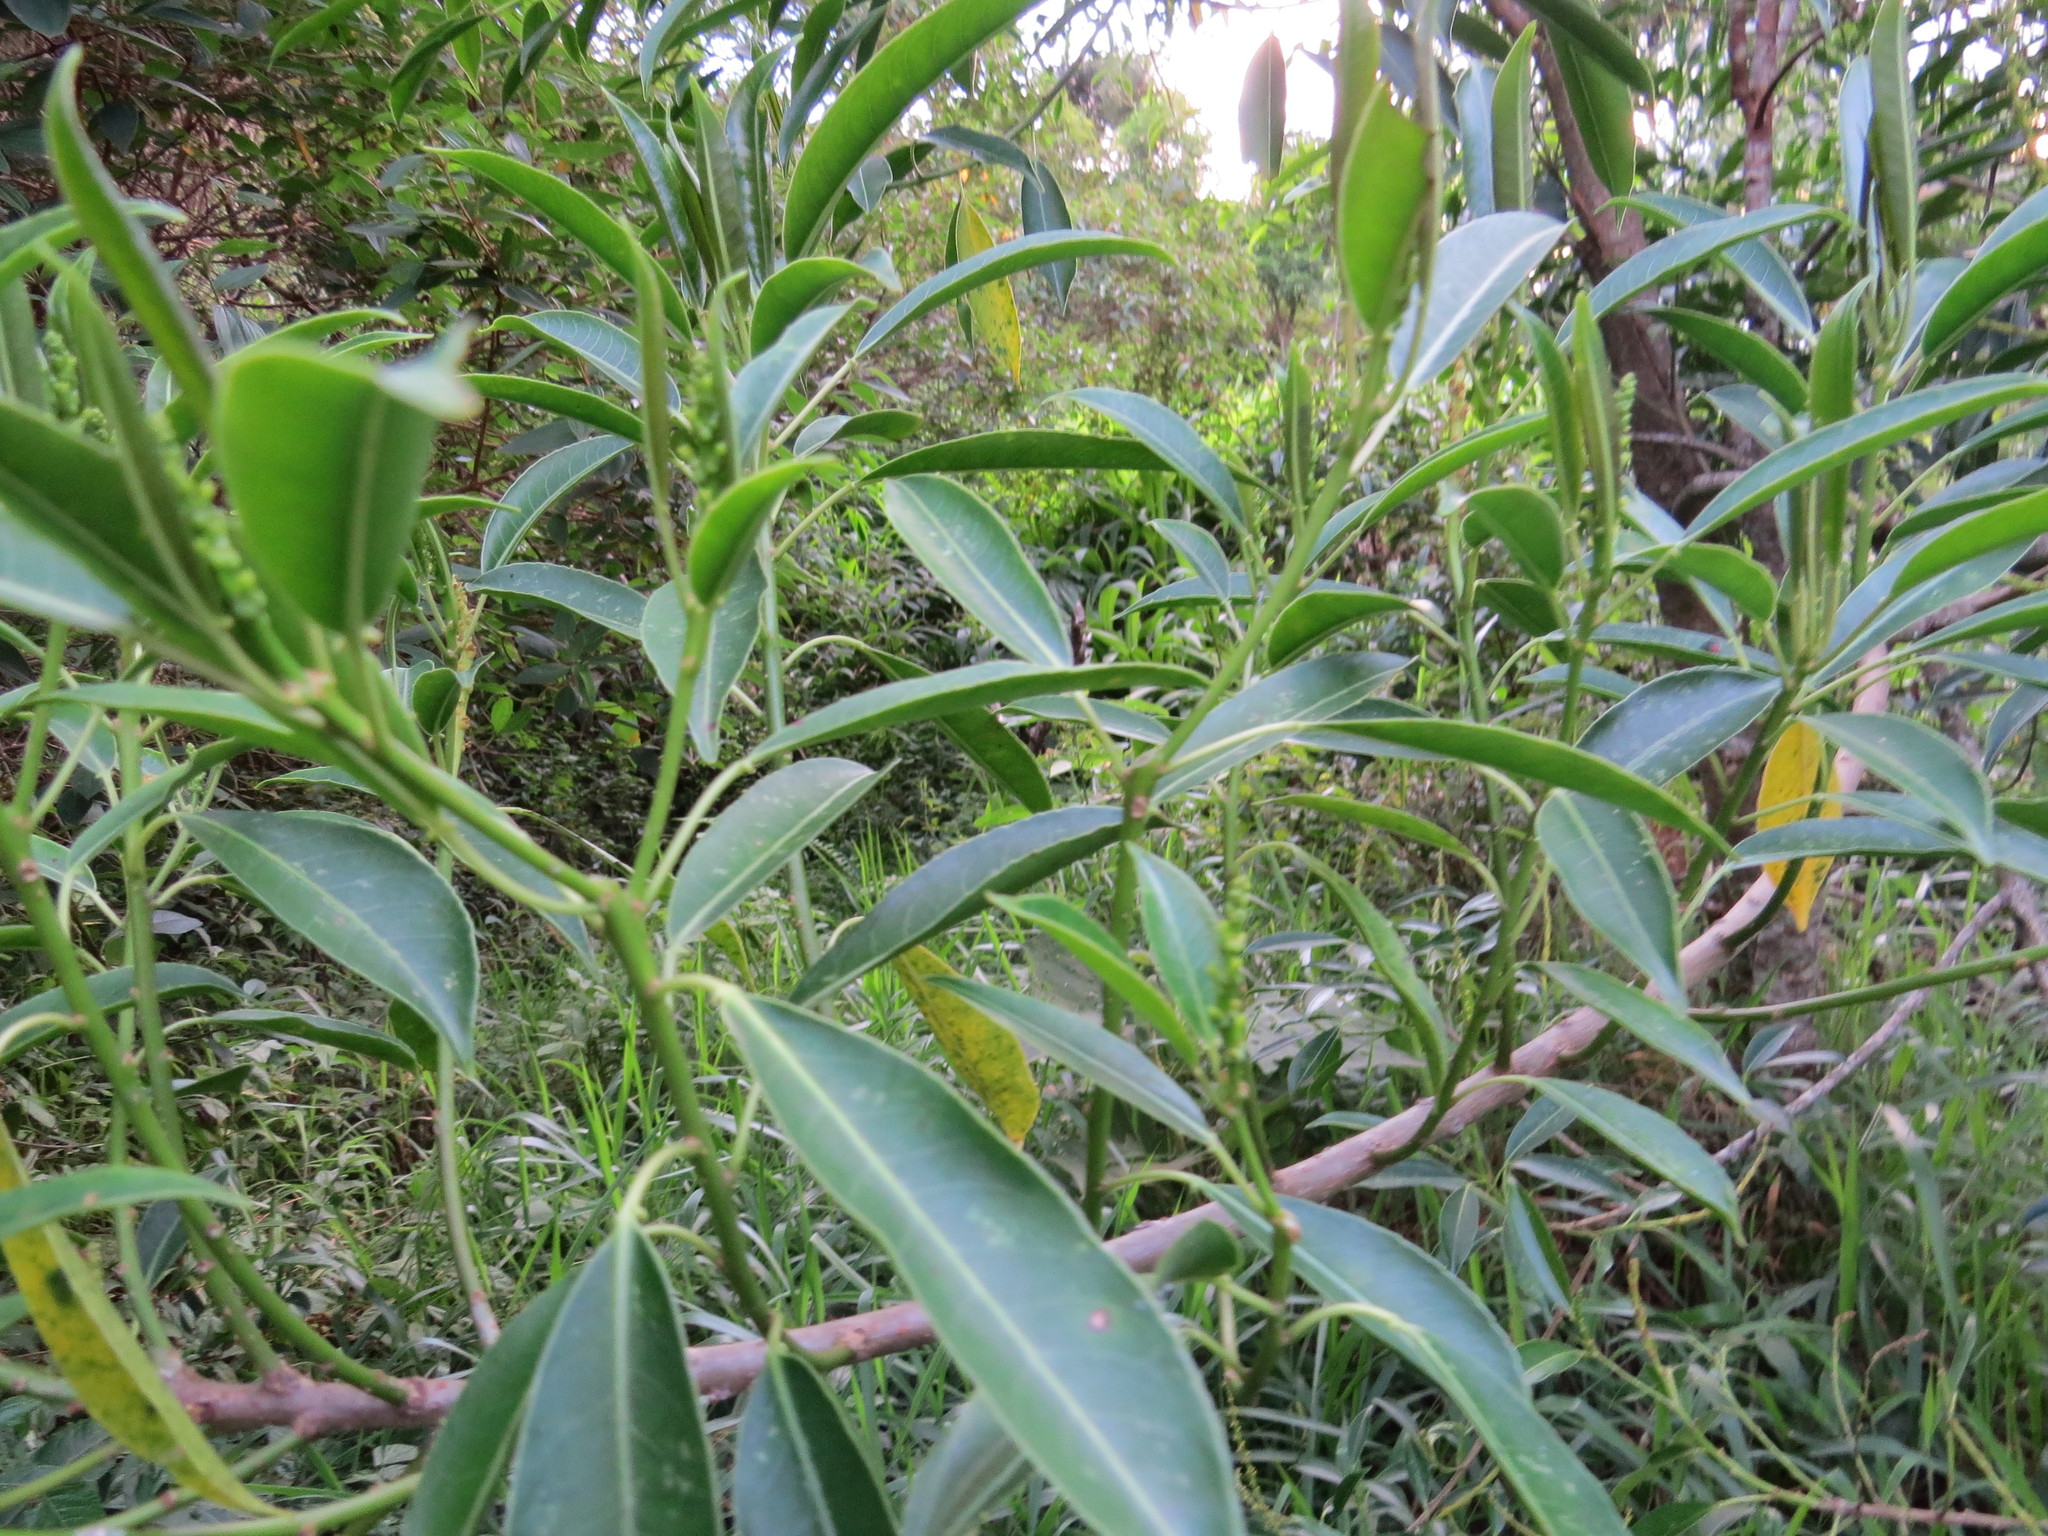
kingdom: Plantae
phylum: Tracheophyta
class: Magnoliopsida
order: Malpighiales
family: Euphorbiaceae
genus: Sapium
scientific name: Sapium glandulosum
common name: Milktree
